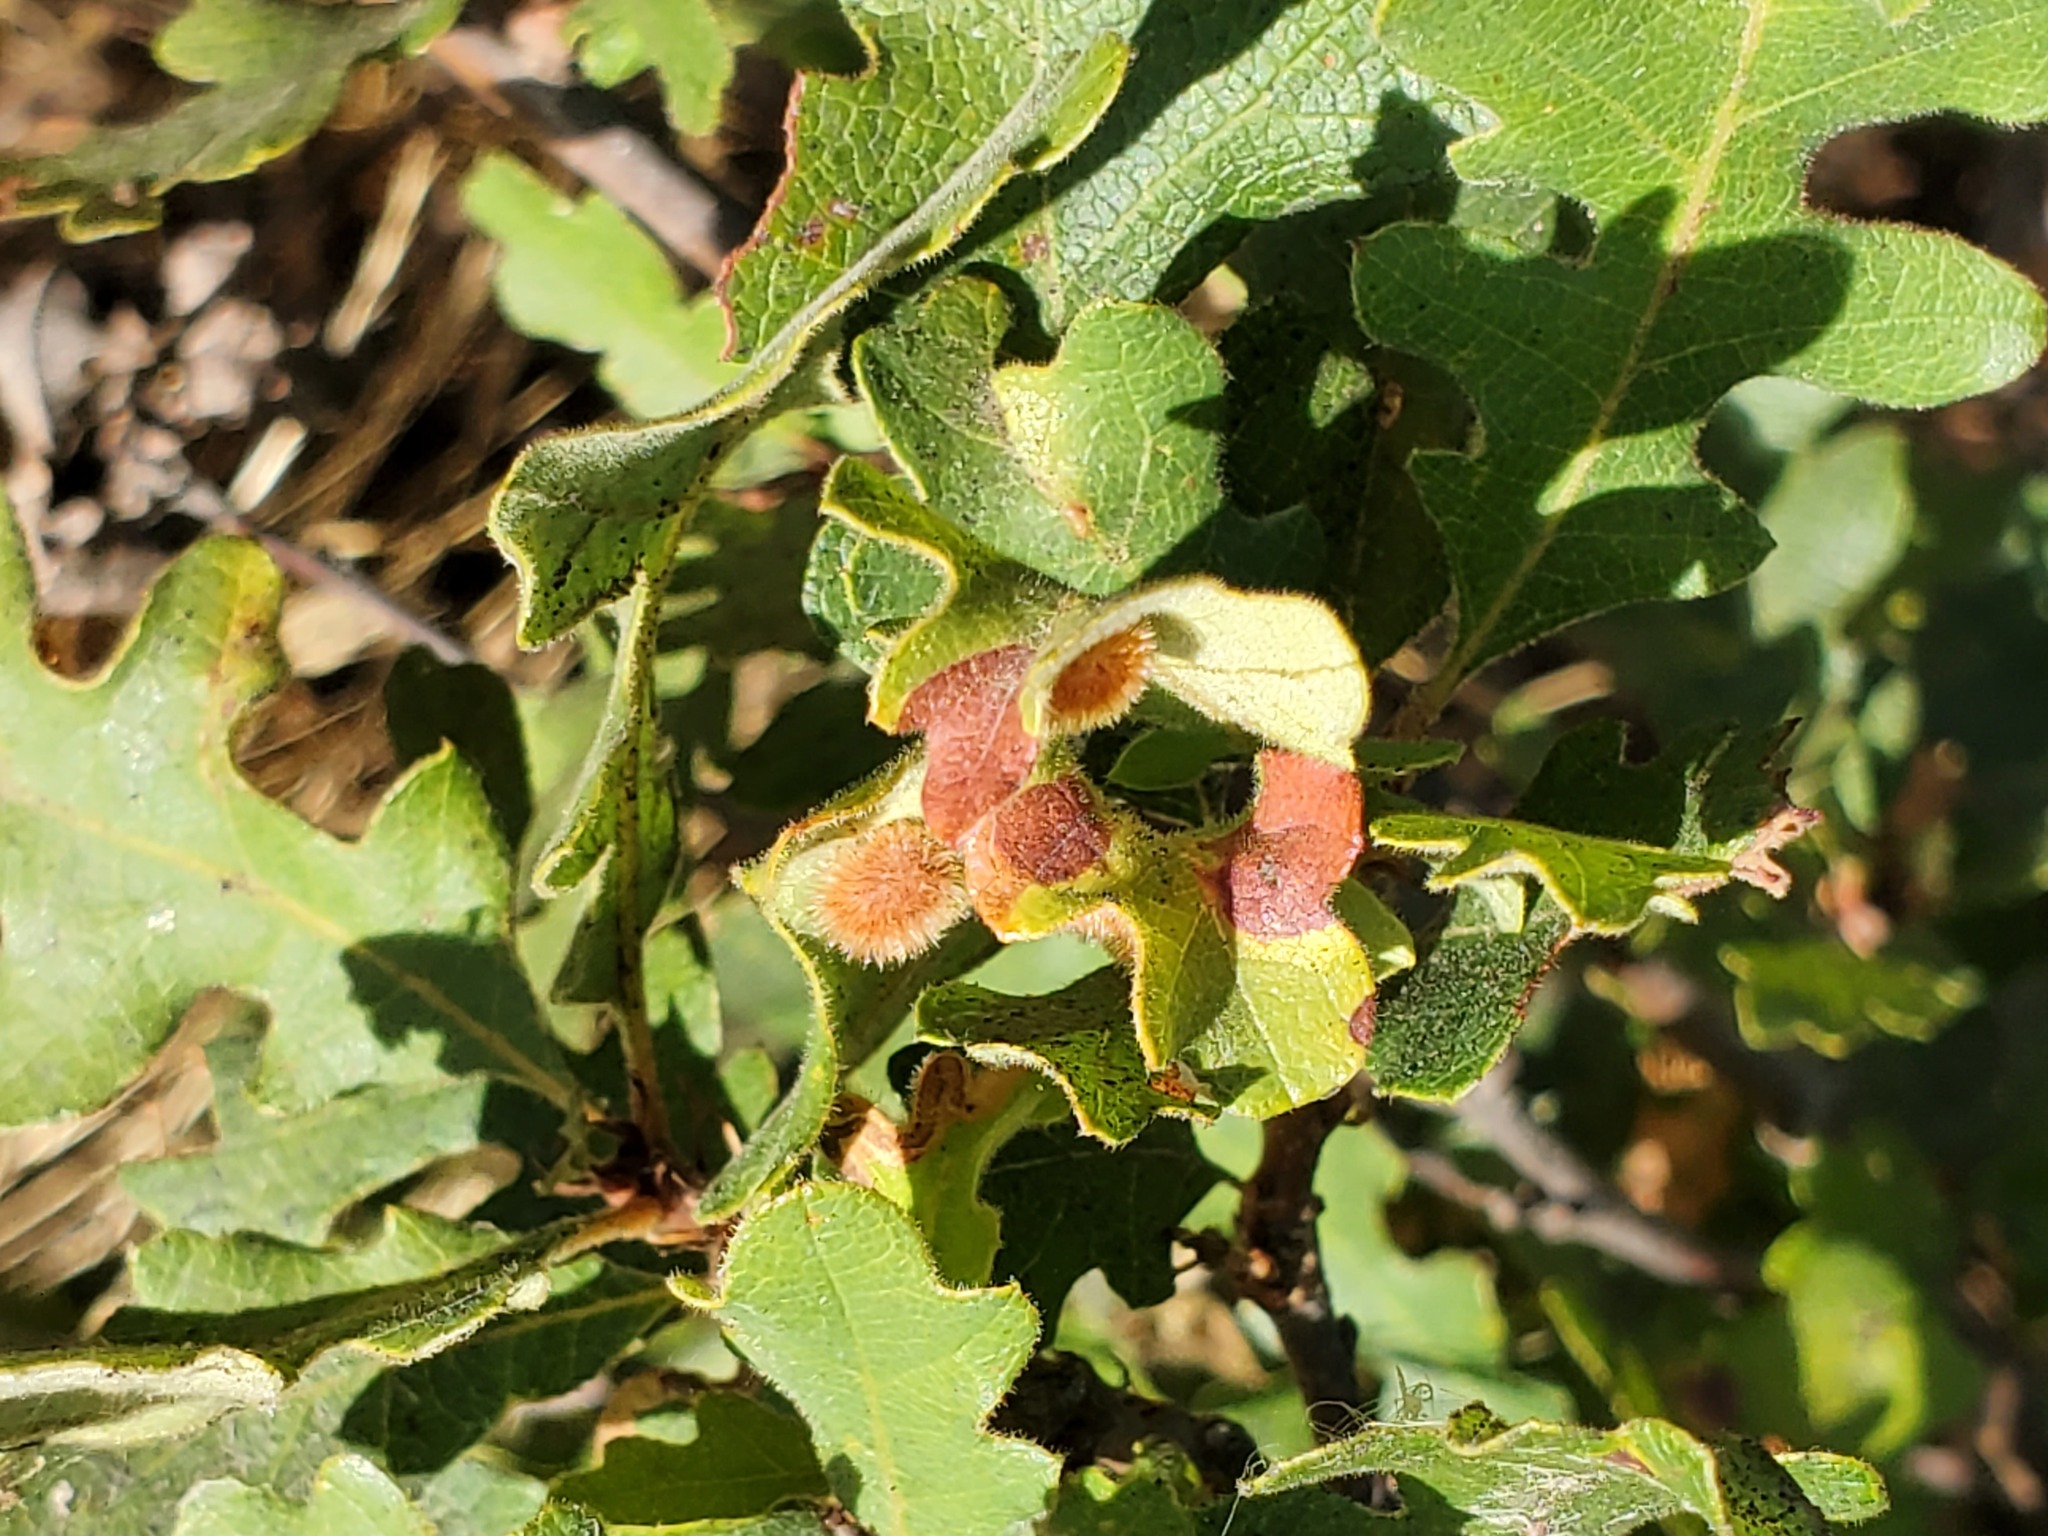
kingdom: Animalia
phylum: Arthropoda
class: Insecta
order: Hymenoptera
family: Cynipidae
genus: Atrusca
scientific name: Atrusca
